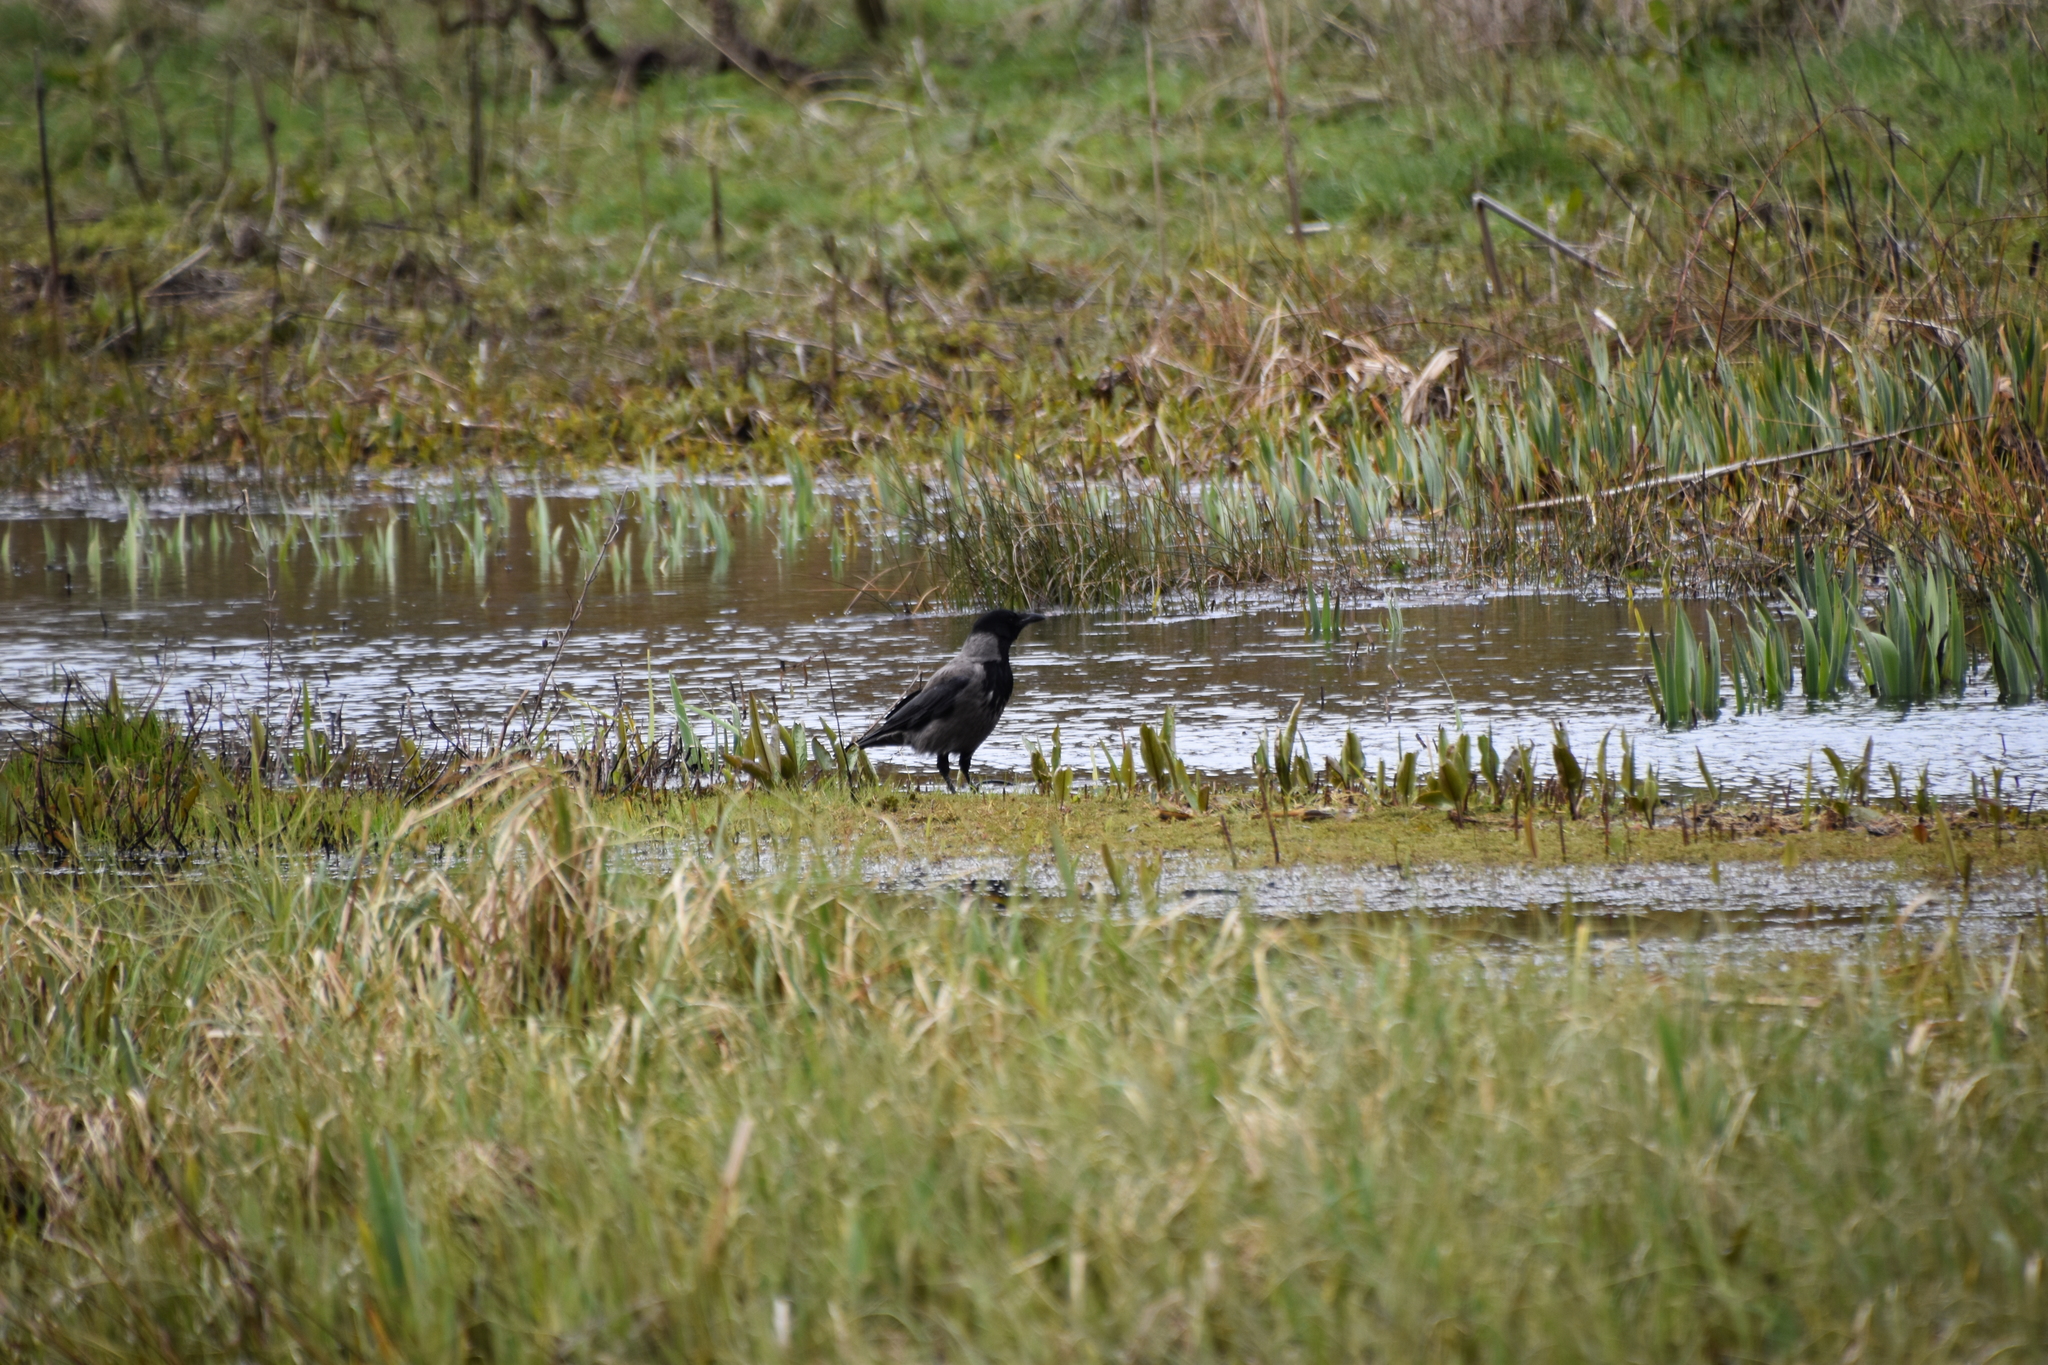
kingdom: Animalia
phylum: Chordata
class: Aves
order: Passeriformes
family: Corvidae
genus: Corvus
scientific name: Corvus cornix
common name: Hooded crow
